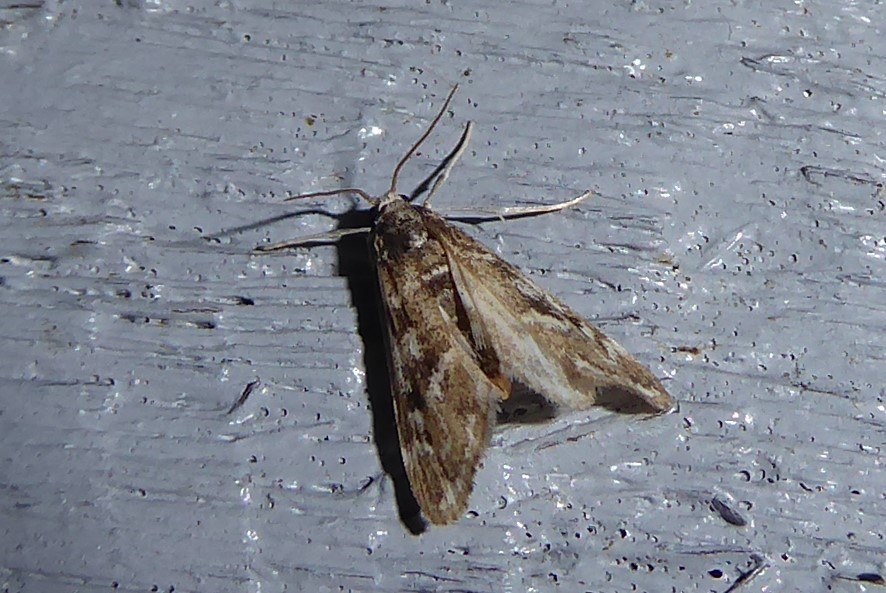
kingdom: Animalia
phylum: Arthropoda
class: Insecta
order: Lepidoptera
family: Crambidae
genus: Hygraula
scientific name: Hygraula nitens
